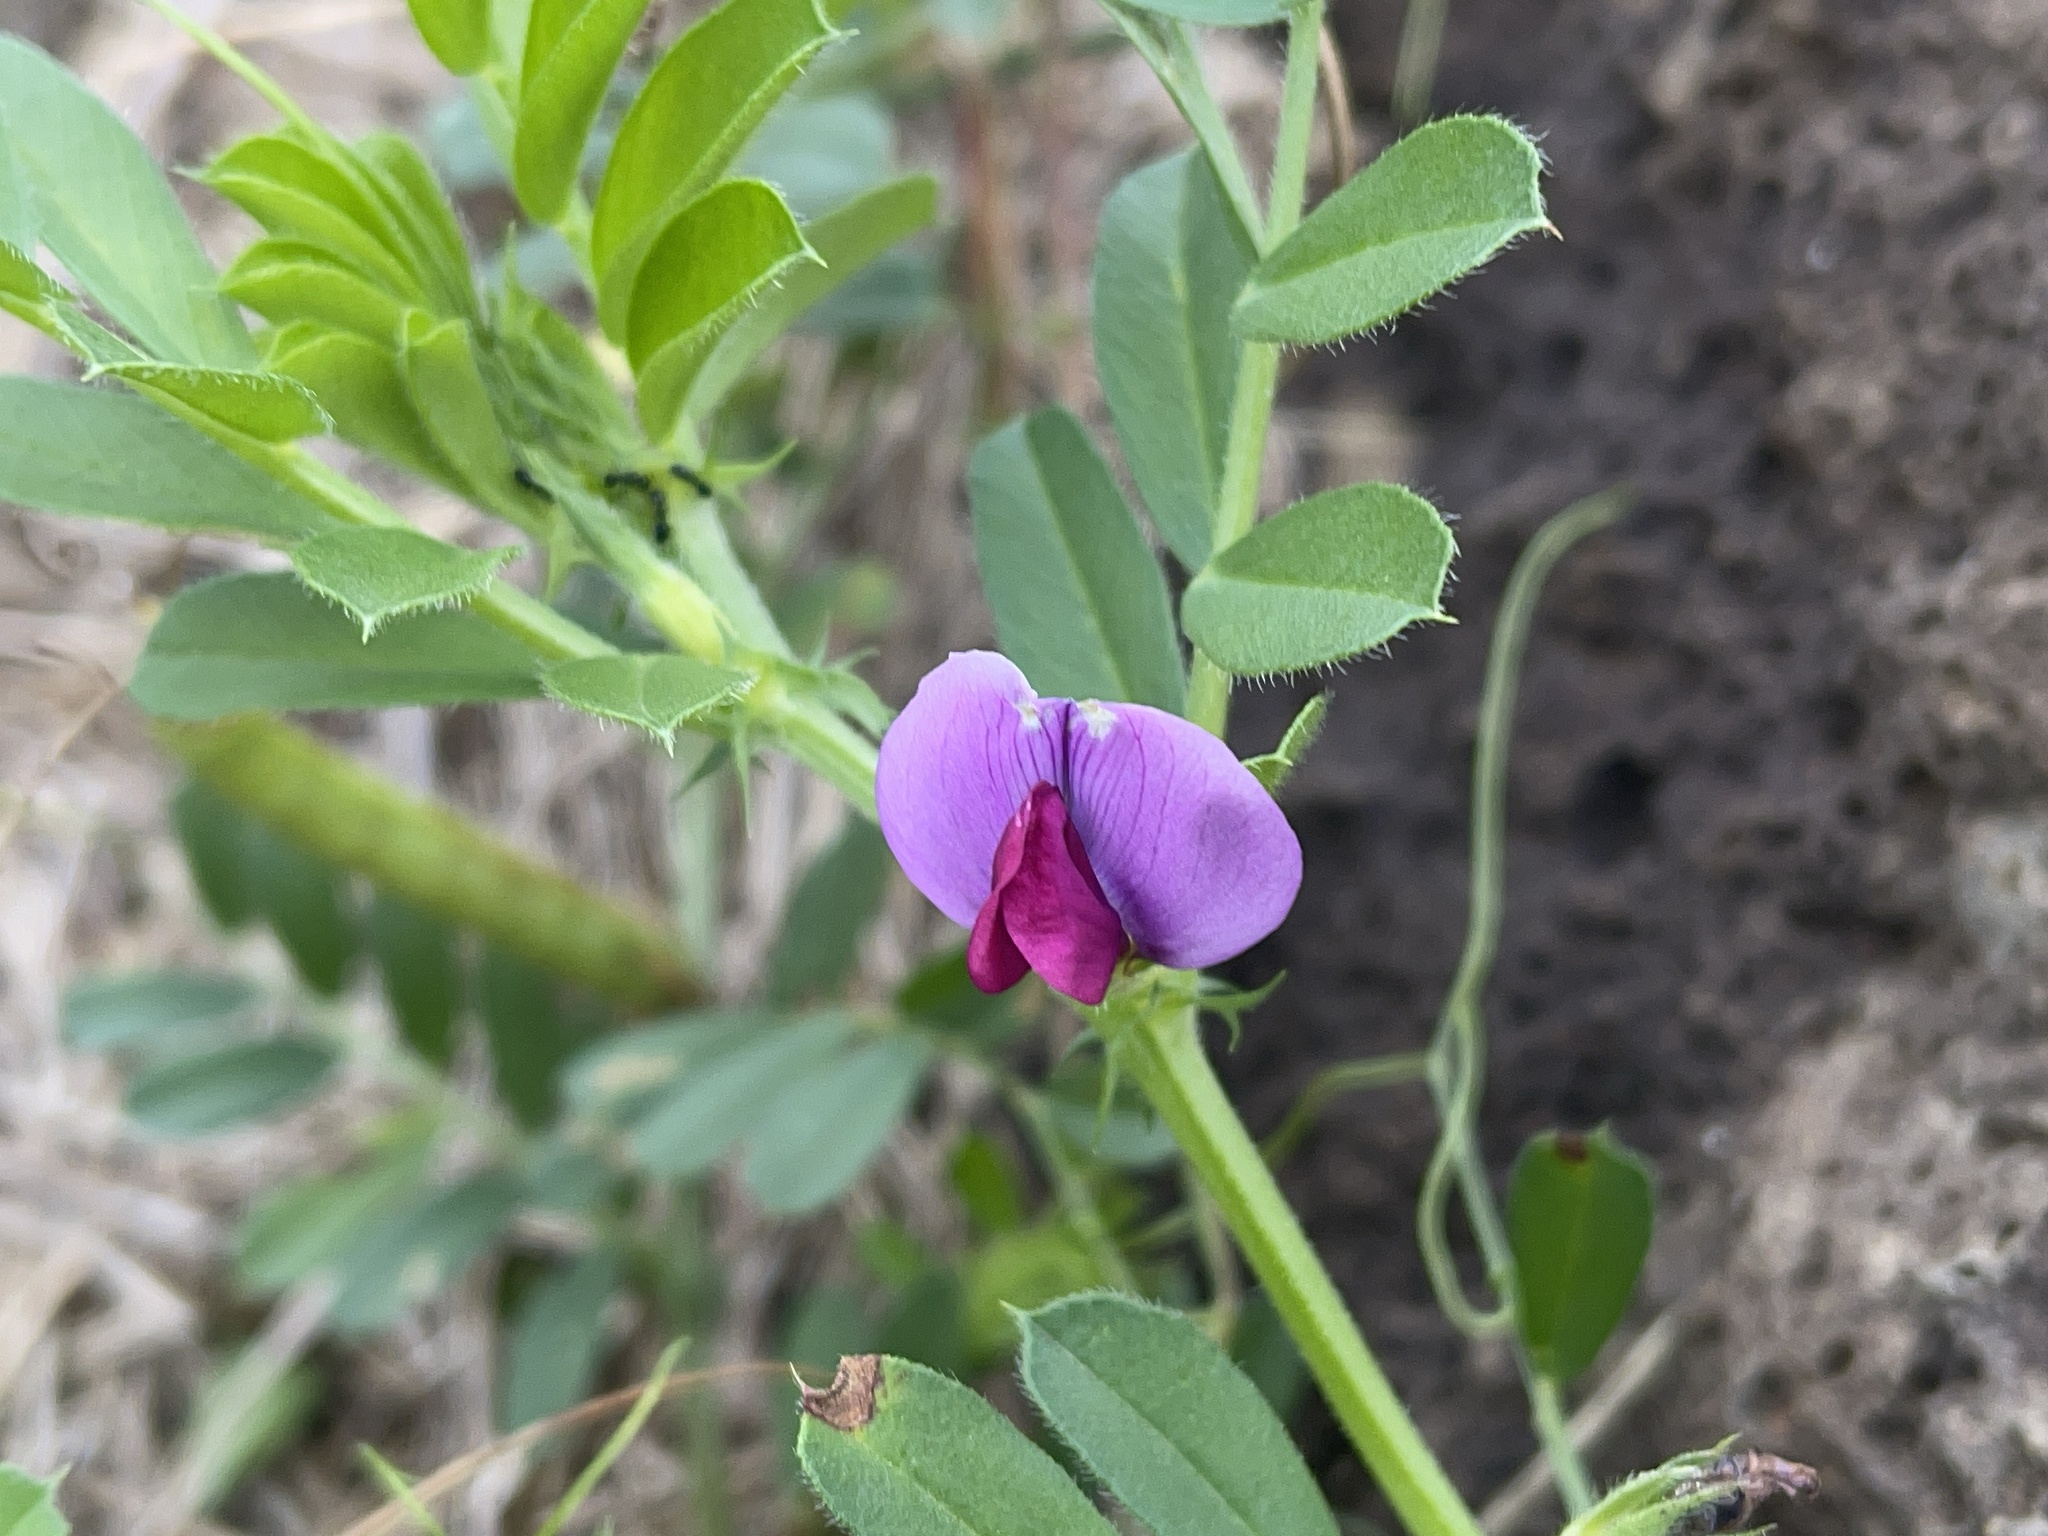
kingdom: Plantae
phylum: Tracheophyta
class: Magnoliopsida
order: Fabales
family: Fabaceae
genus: Vicia
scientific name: Vicia sativa
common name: Garden vetch
